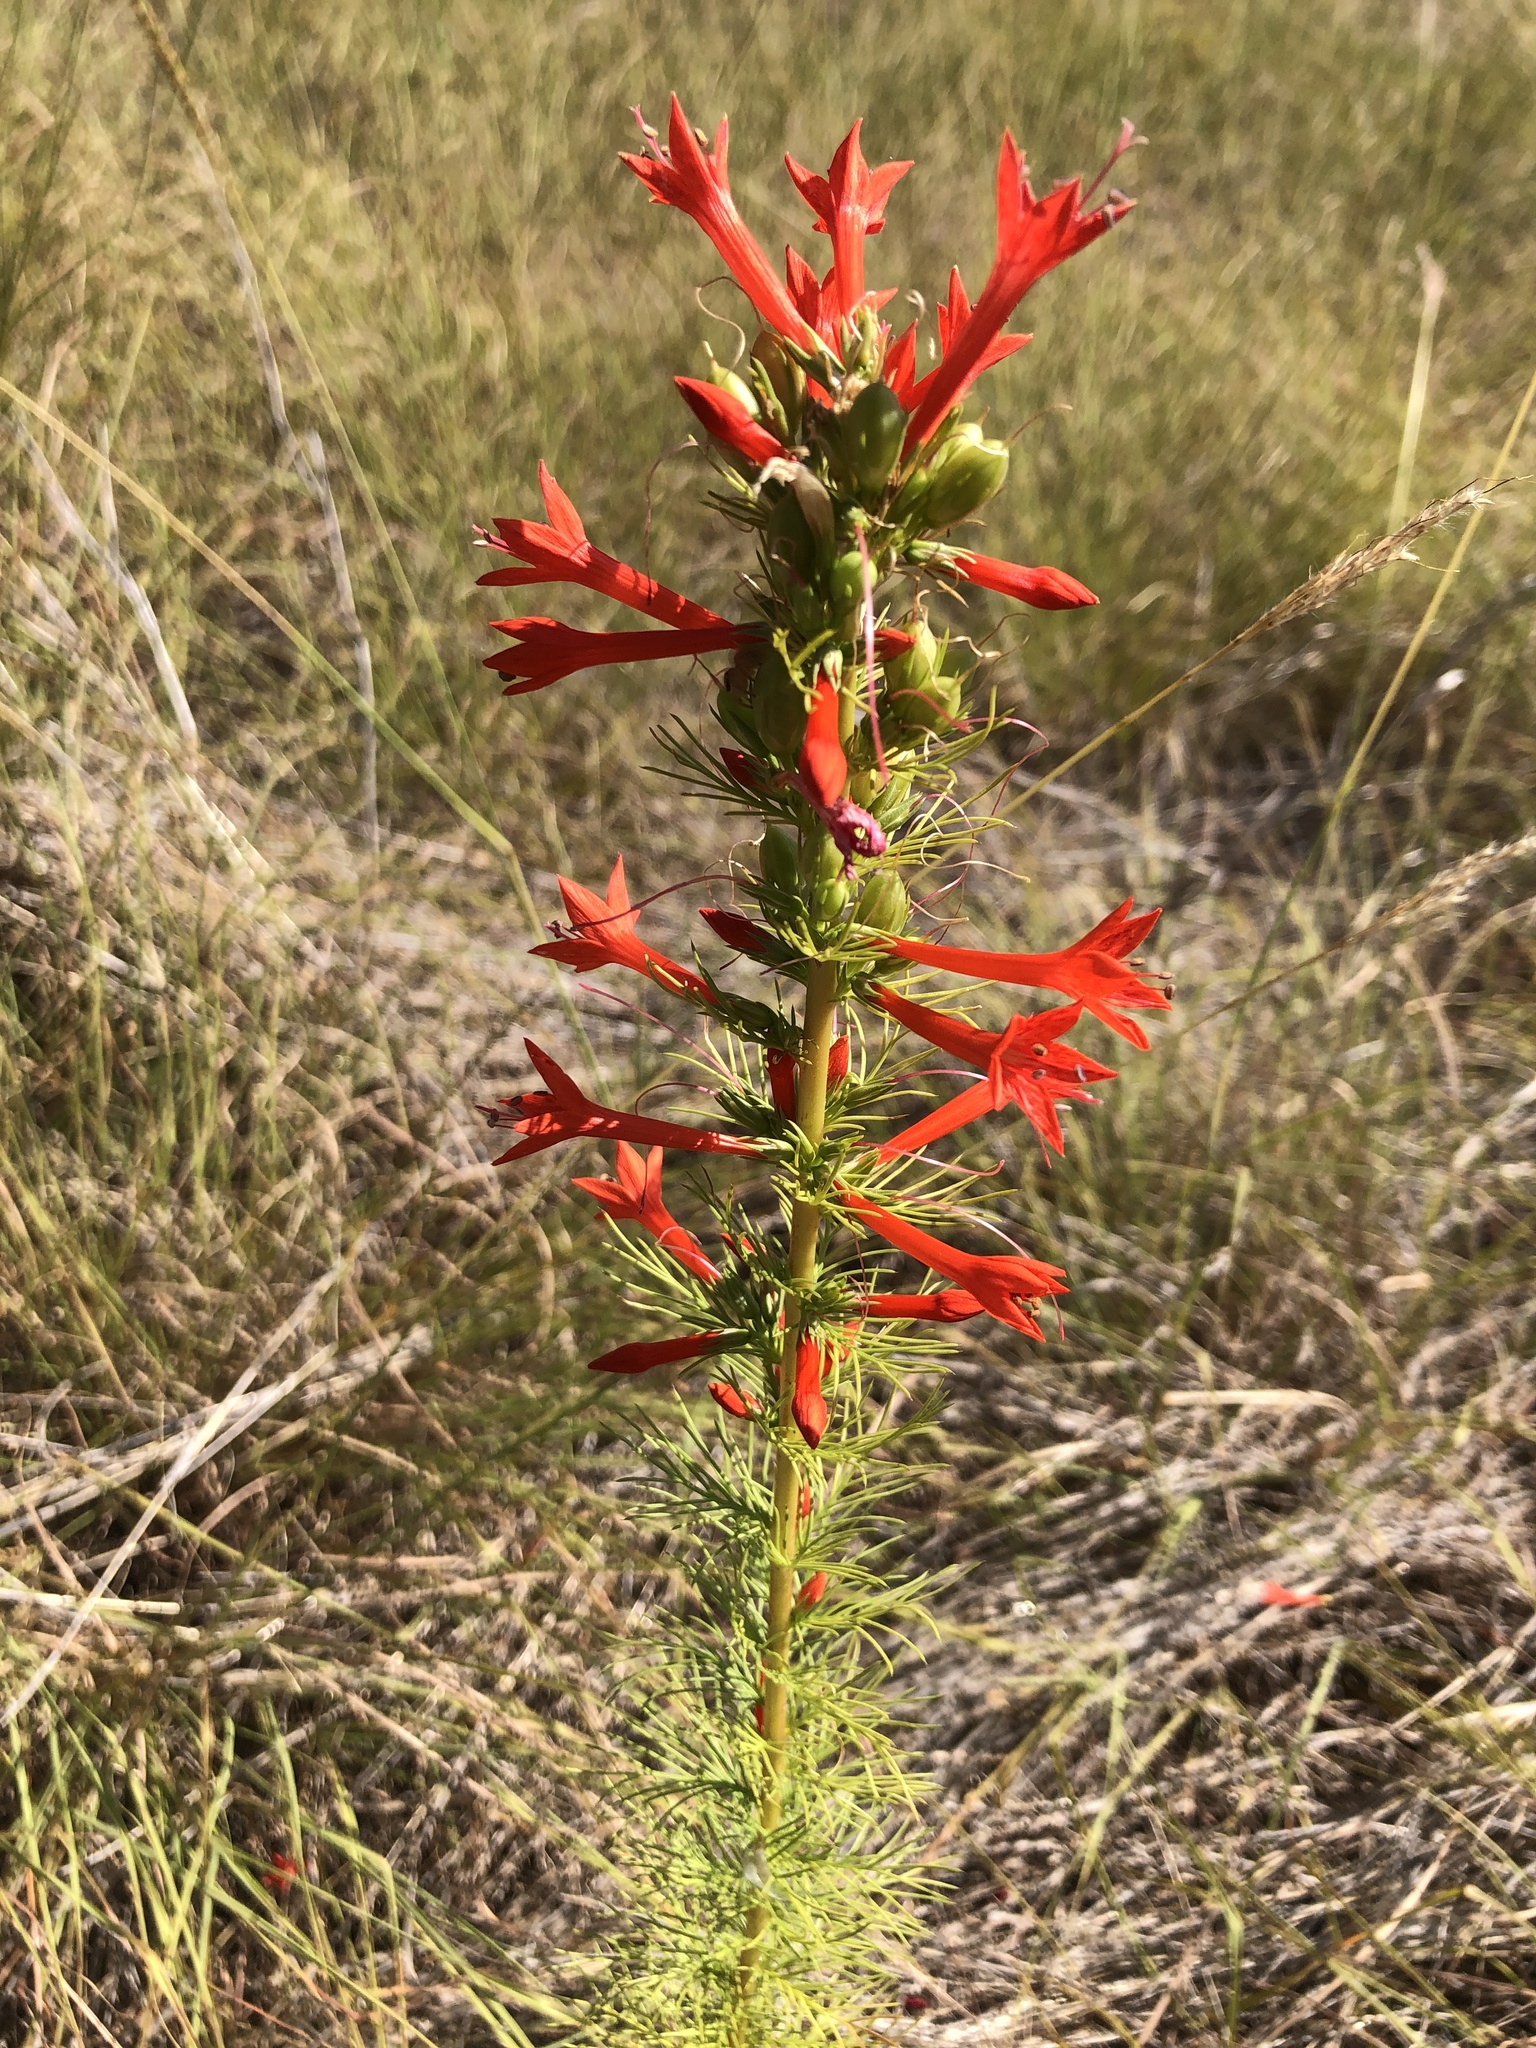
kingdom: Plantae
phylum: Tracheophyta
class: Magnoliopsida
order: Ericales
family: Polemoniaceae
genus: Ipomopsis
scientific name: Ipomopsis rubra
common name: Skyrocket
